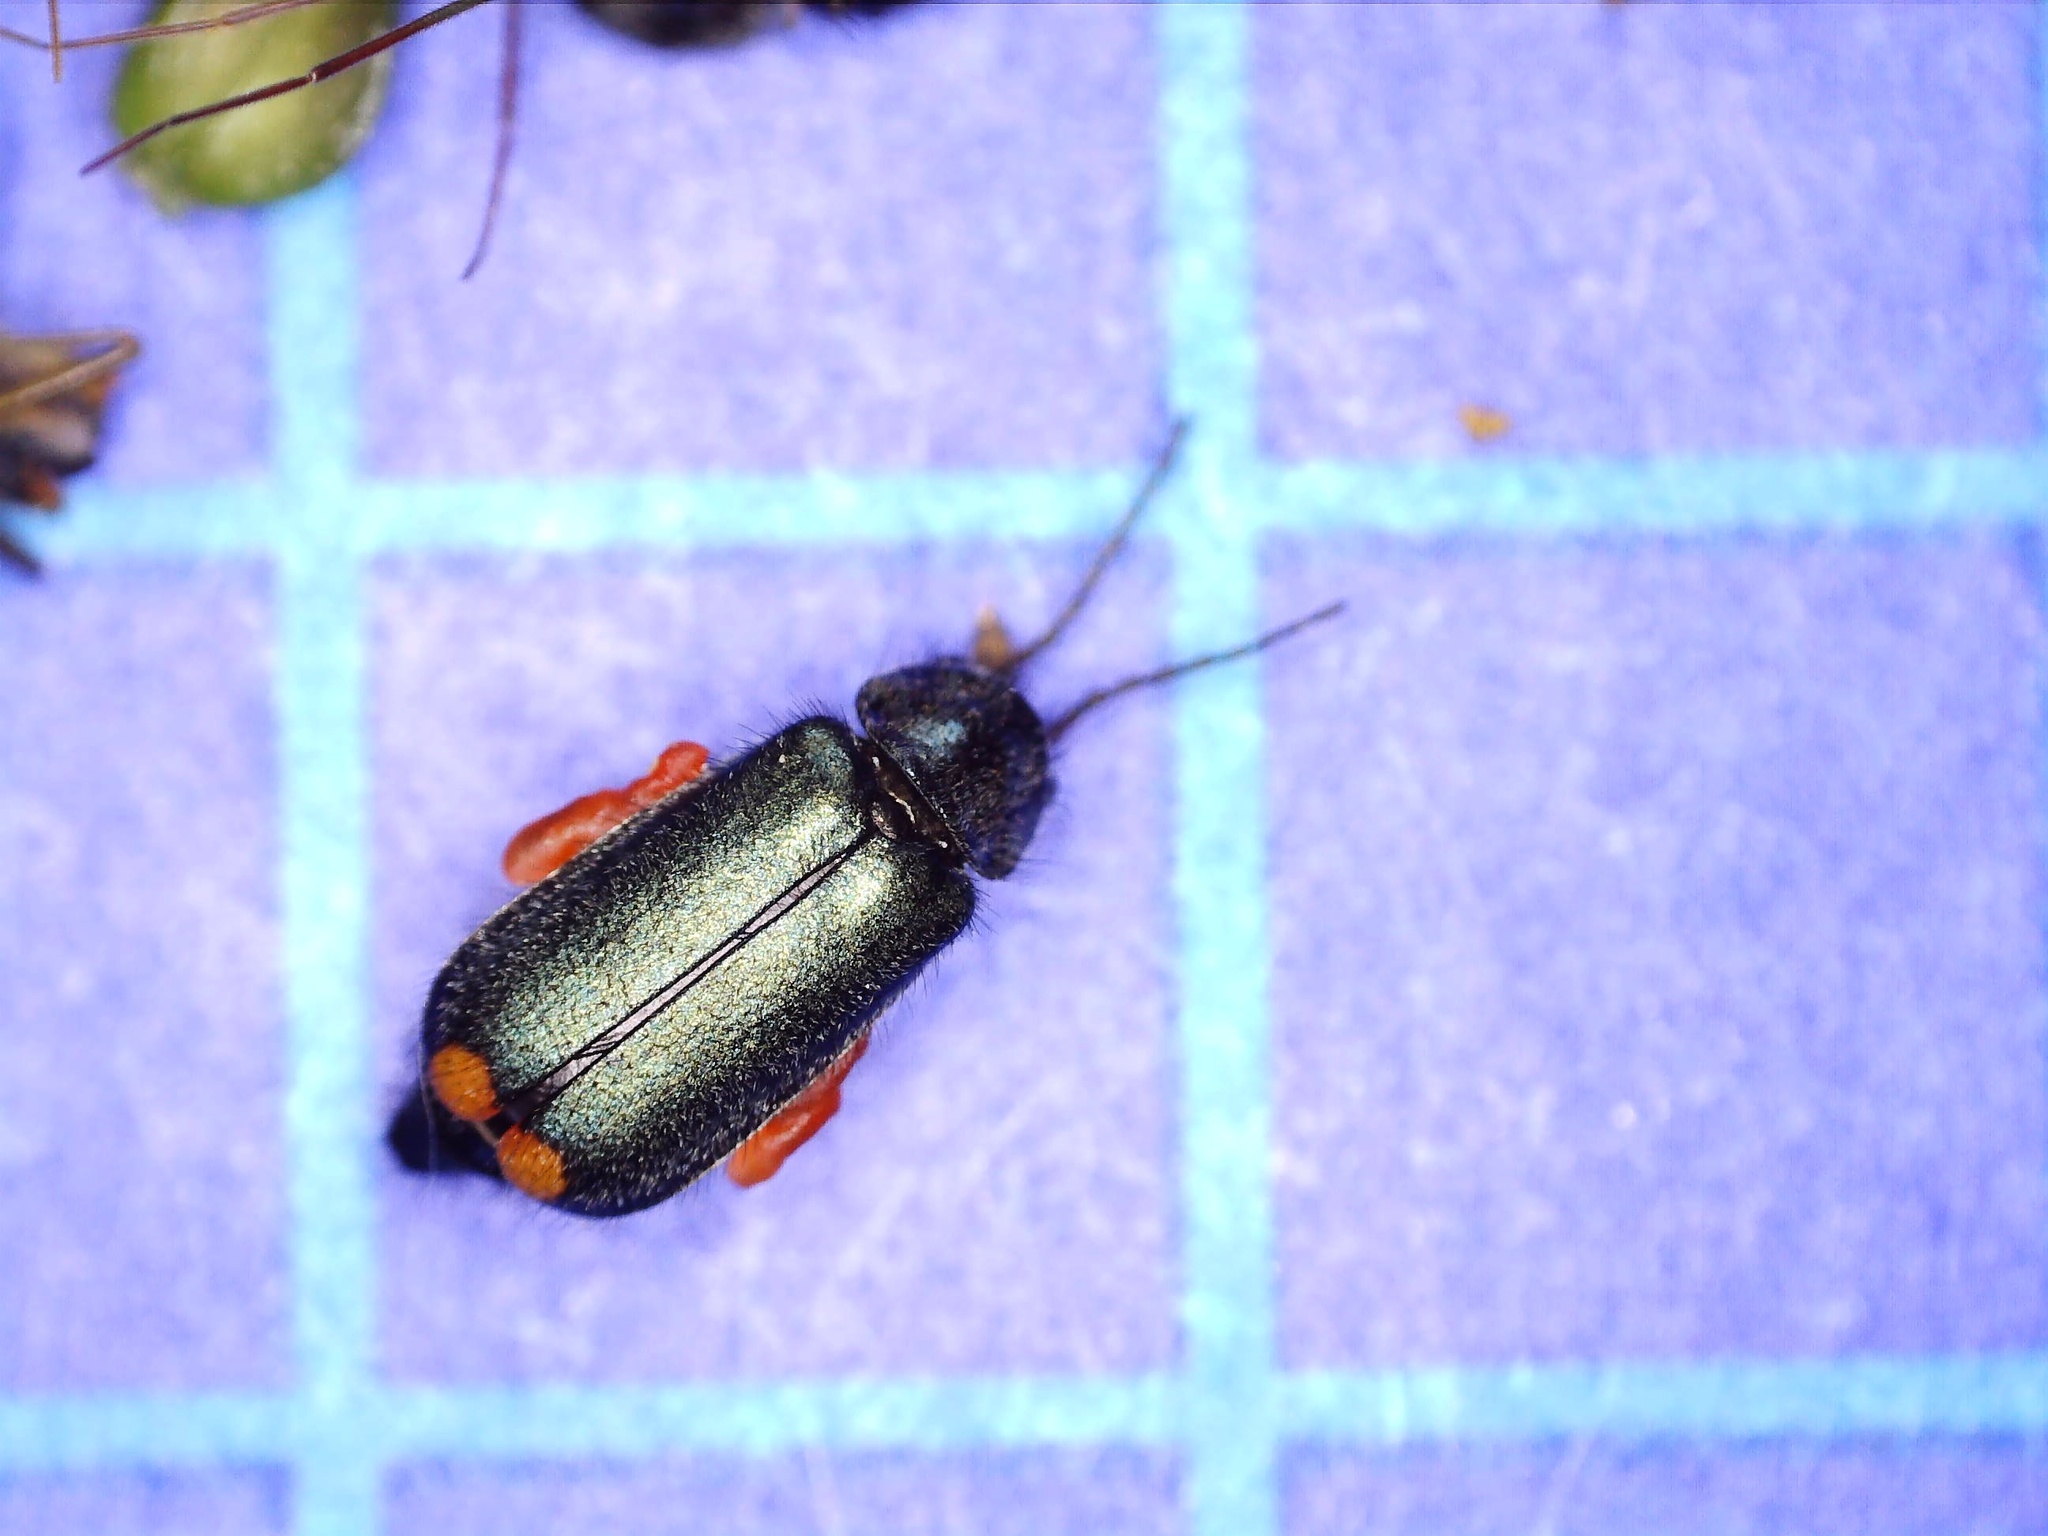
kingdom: Animalia
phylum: Arthropoda
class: Insecta
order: Coleoptera
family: Melyridae
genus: Malachius
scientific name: Malachius bipustulatus
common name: Malachite beetle
